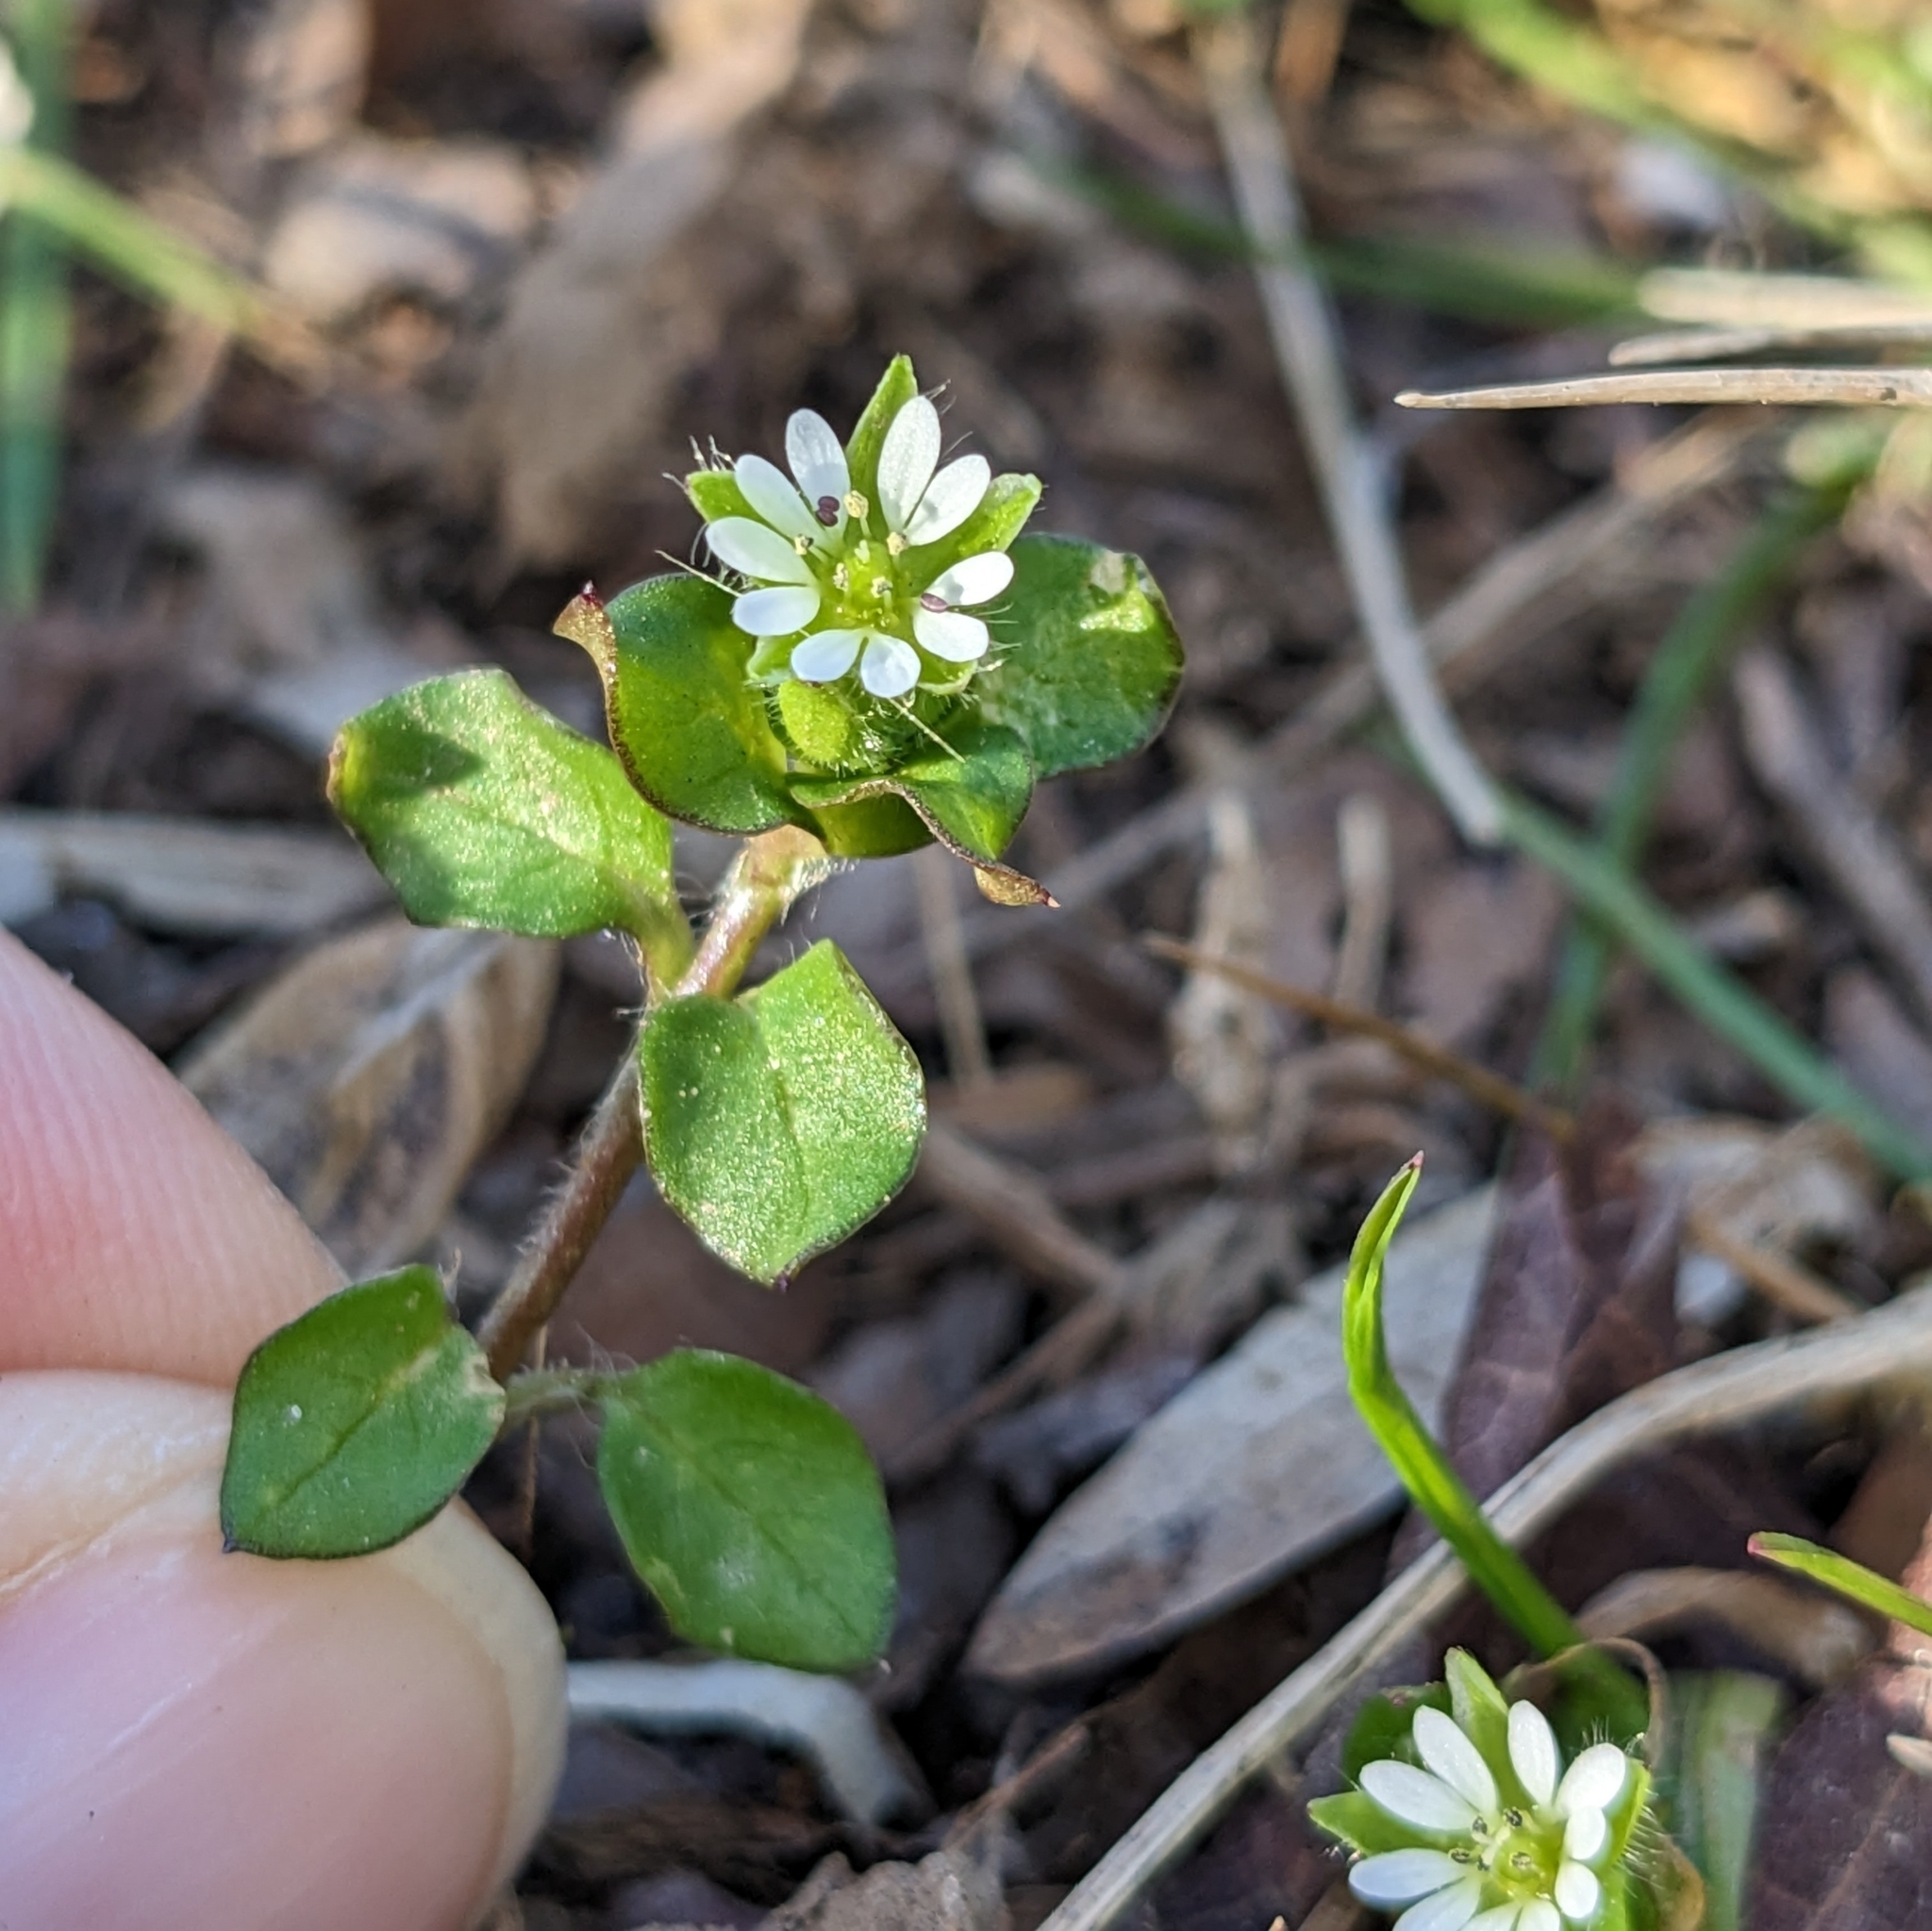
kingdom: Plantae
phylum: Tracheophyta
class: Magnoliopsida
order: Caryophyllales
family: Caryophyllaceae
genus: Stellaria
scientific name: Stellaria media
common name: Common chickweed
